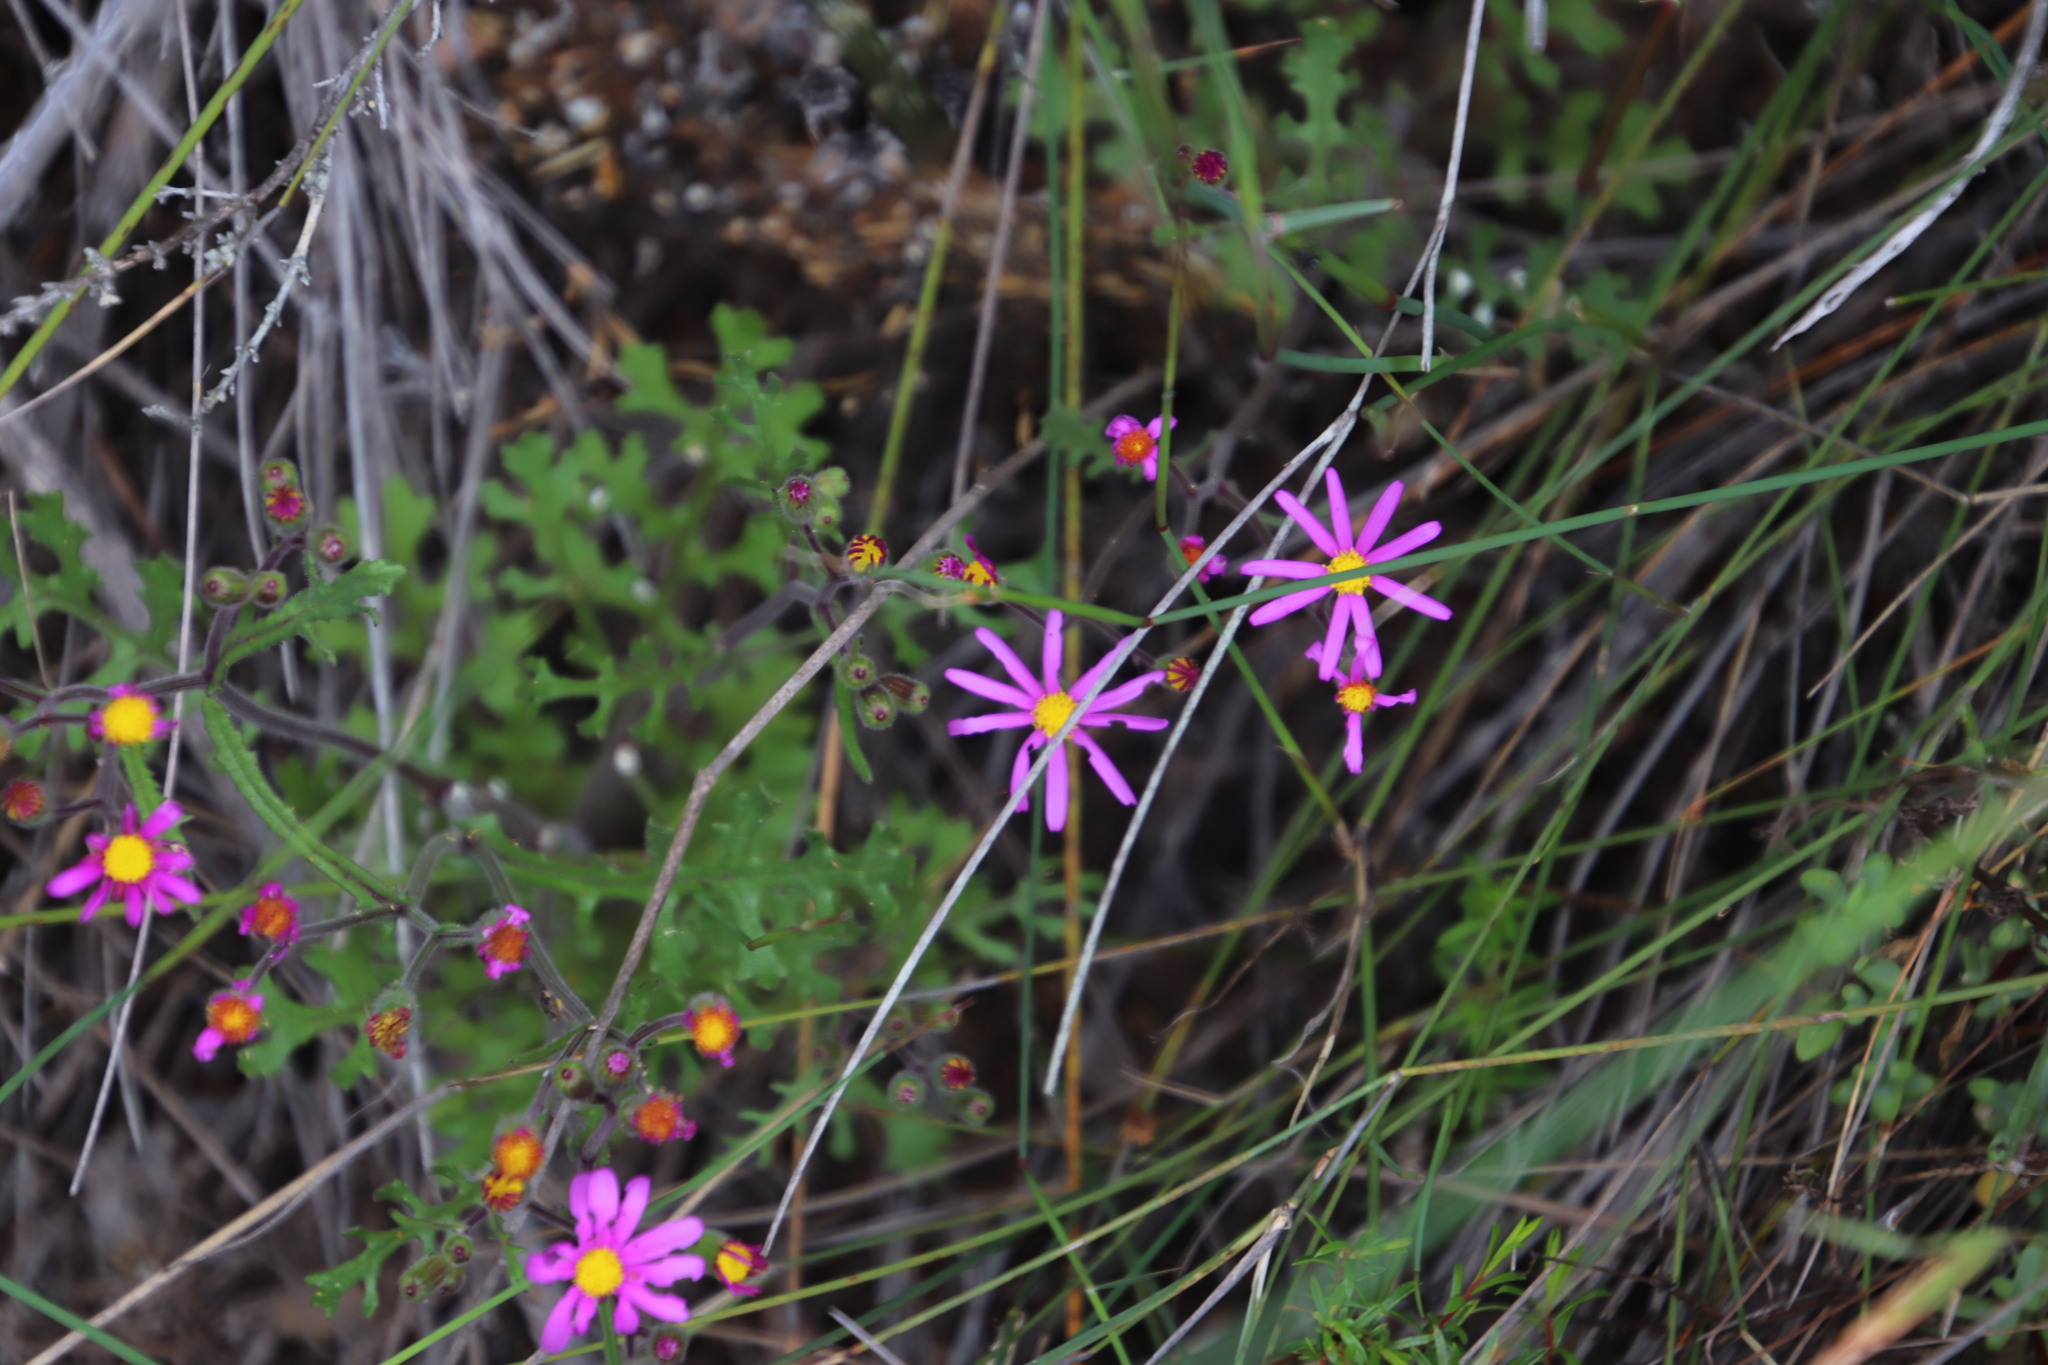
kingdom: Plantae
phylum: Tracheophyta
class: Magnoliopsida
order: Asterales
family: Asteraceae
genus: Senecio
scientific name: Senecio arenarius
